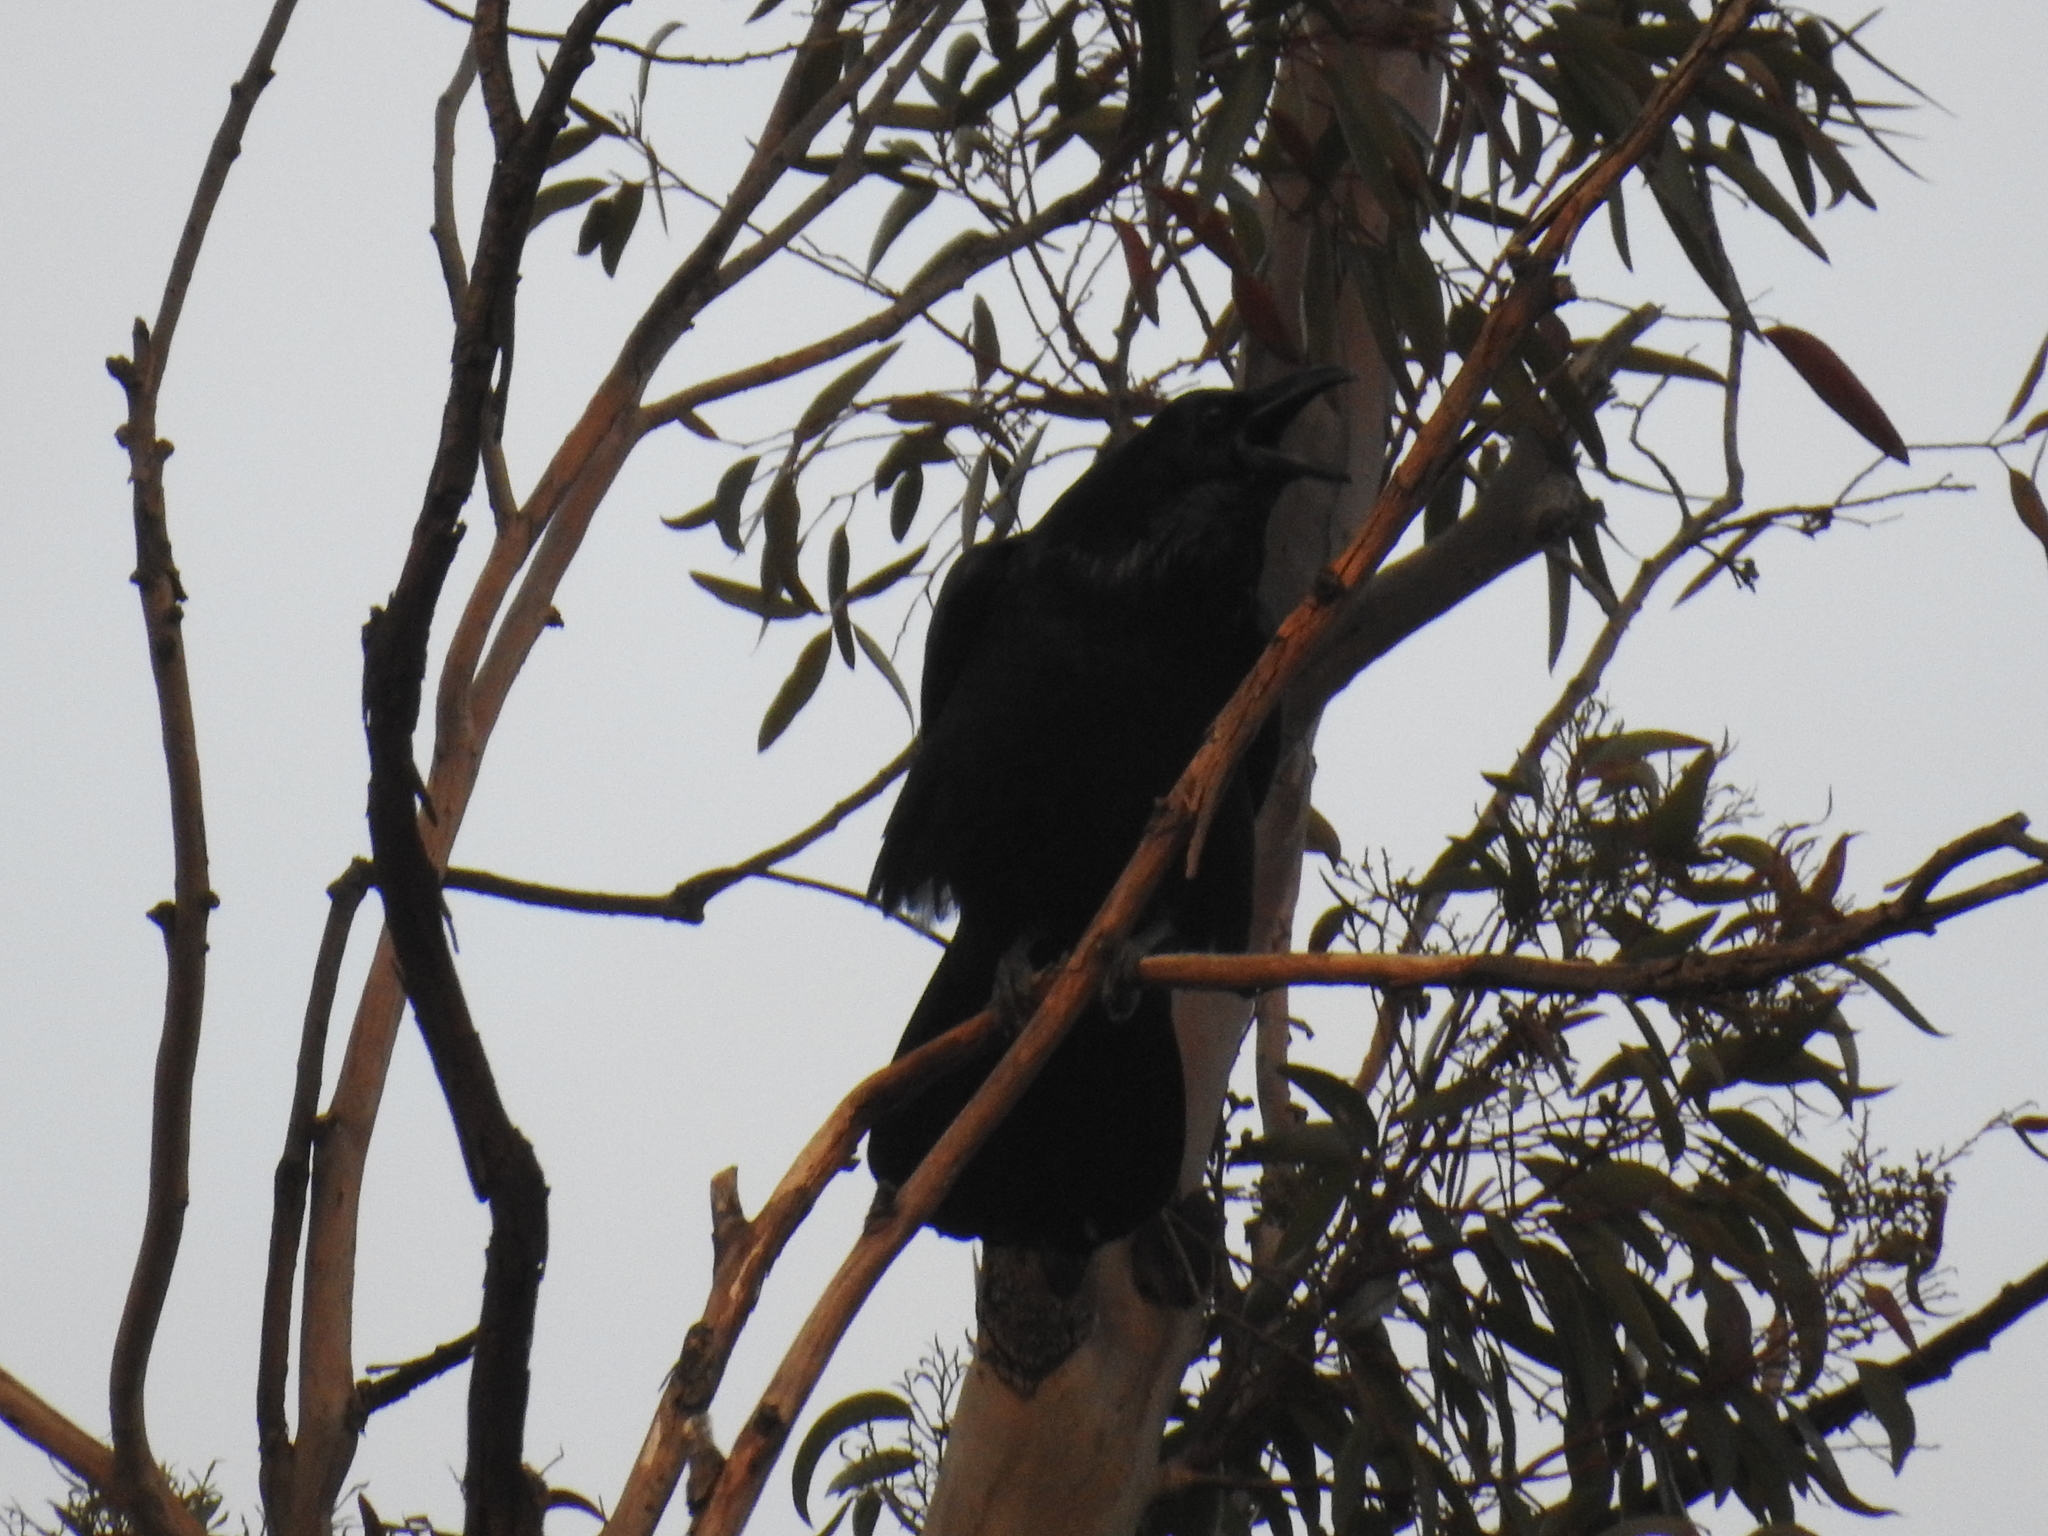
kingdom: Animalia
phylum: Chordata
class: Aves
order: Passeriformes
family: Corvidae
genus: Corvus
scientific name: Corvus corax
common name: Common raven
